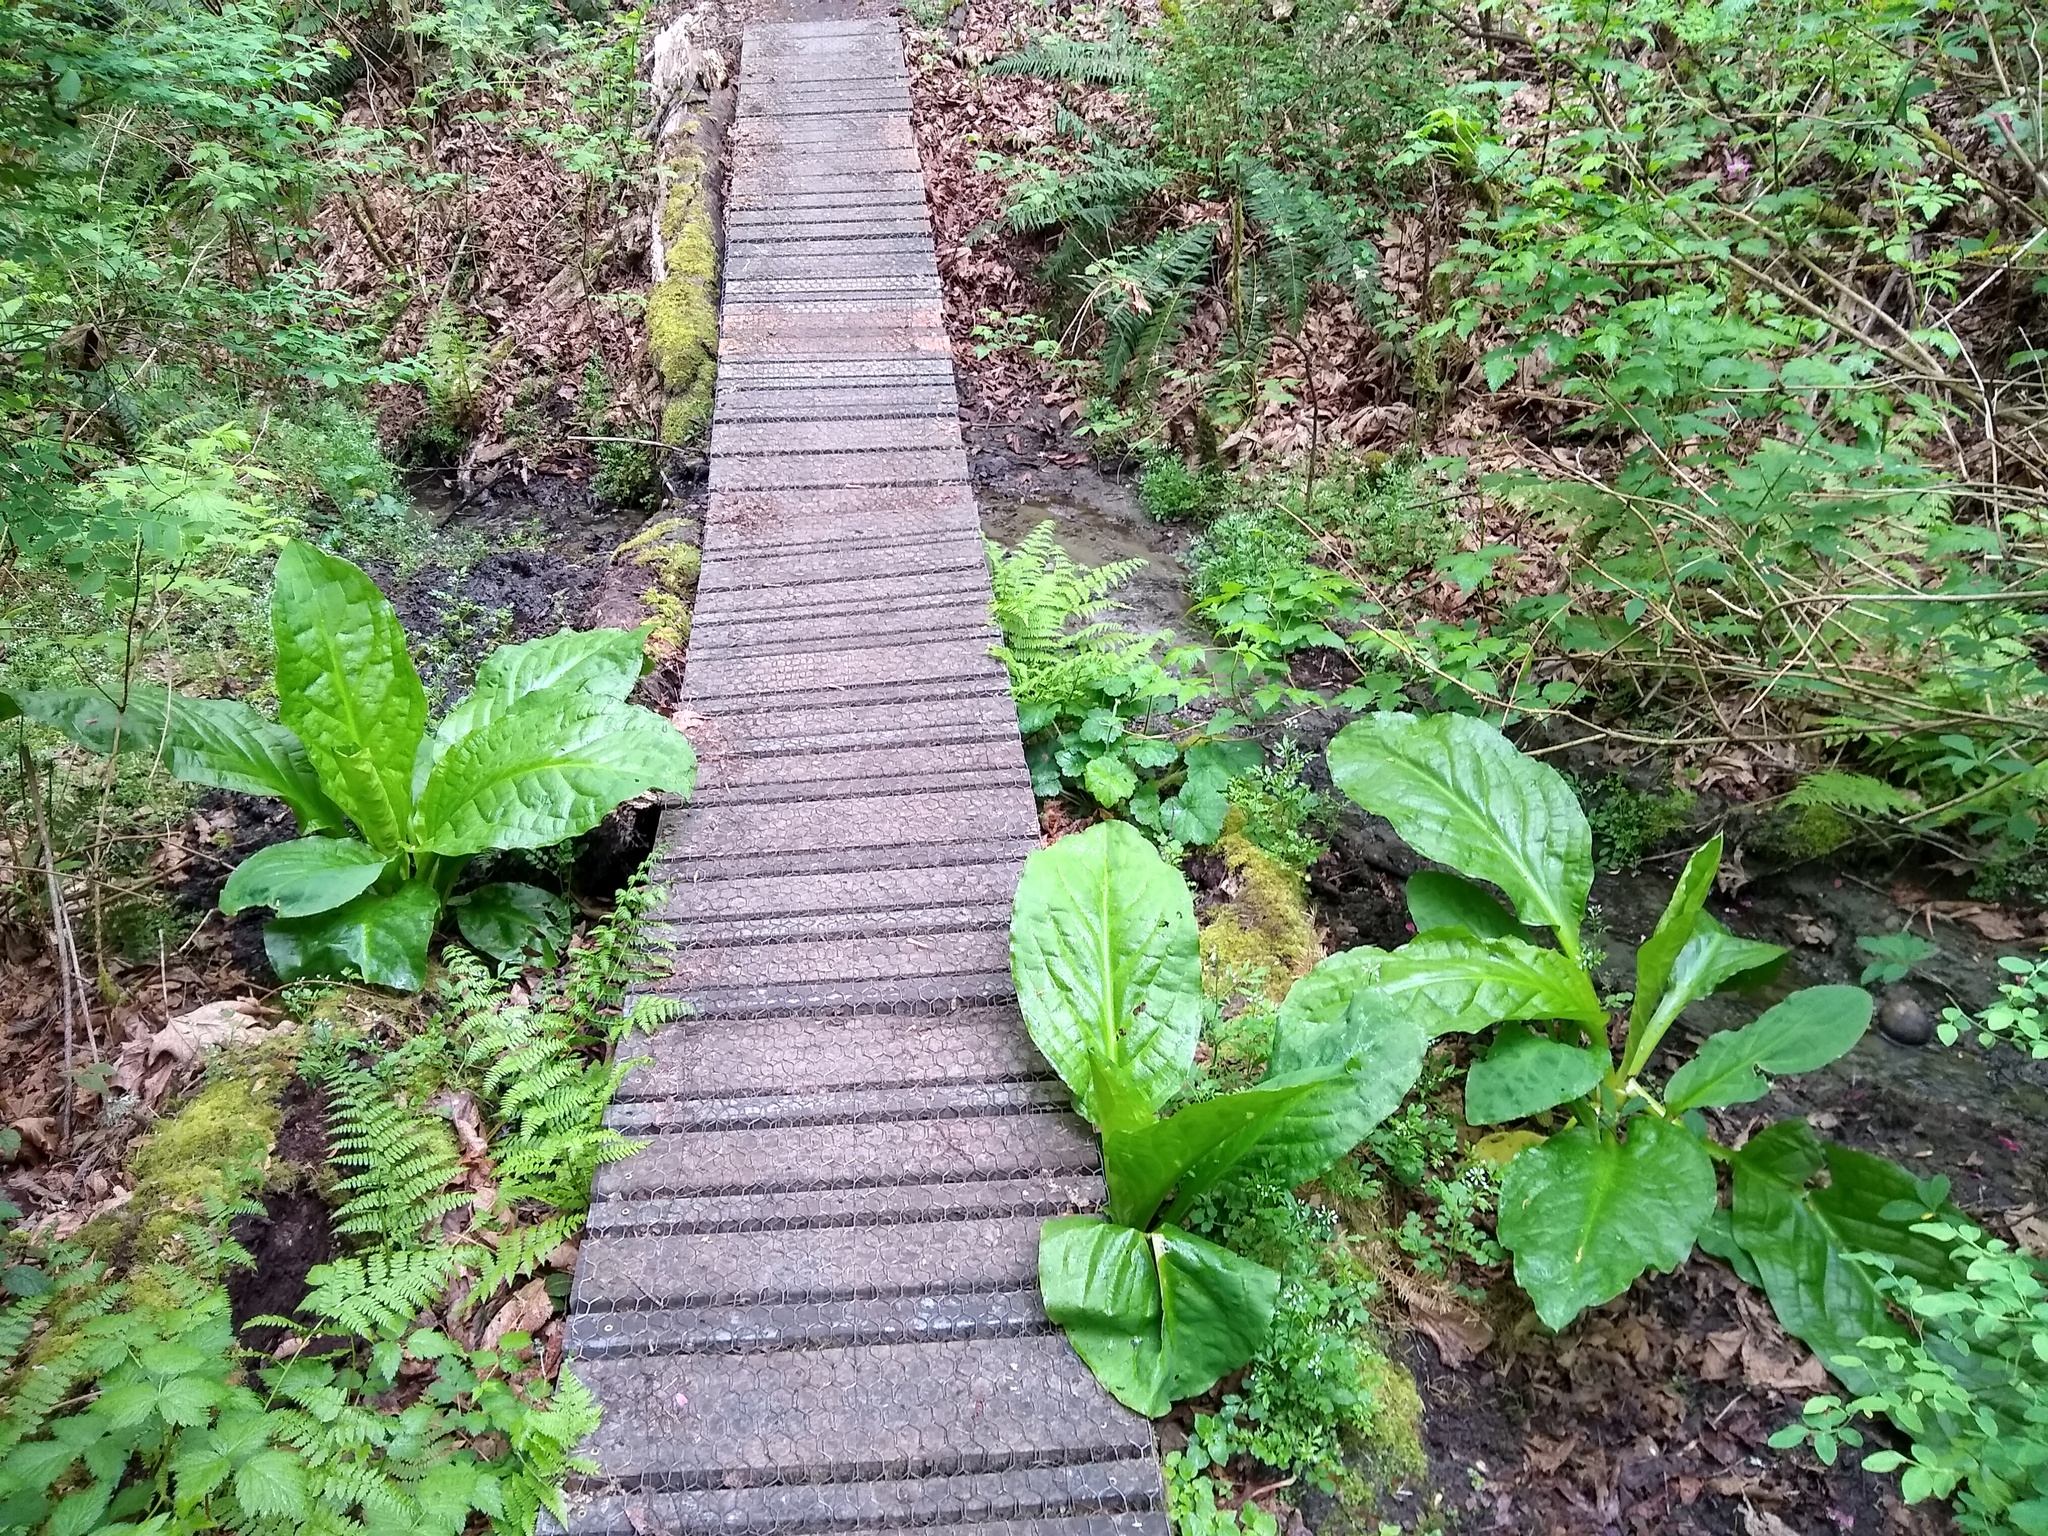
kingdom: Plantae
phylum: Tracheophyta
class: Liliopsida
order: Alismatales
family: Araceae
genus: Lysichiton
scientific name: Lysichiton americanus
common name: American skunk cabbage
